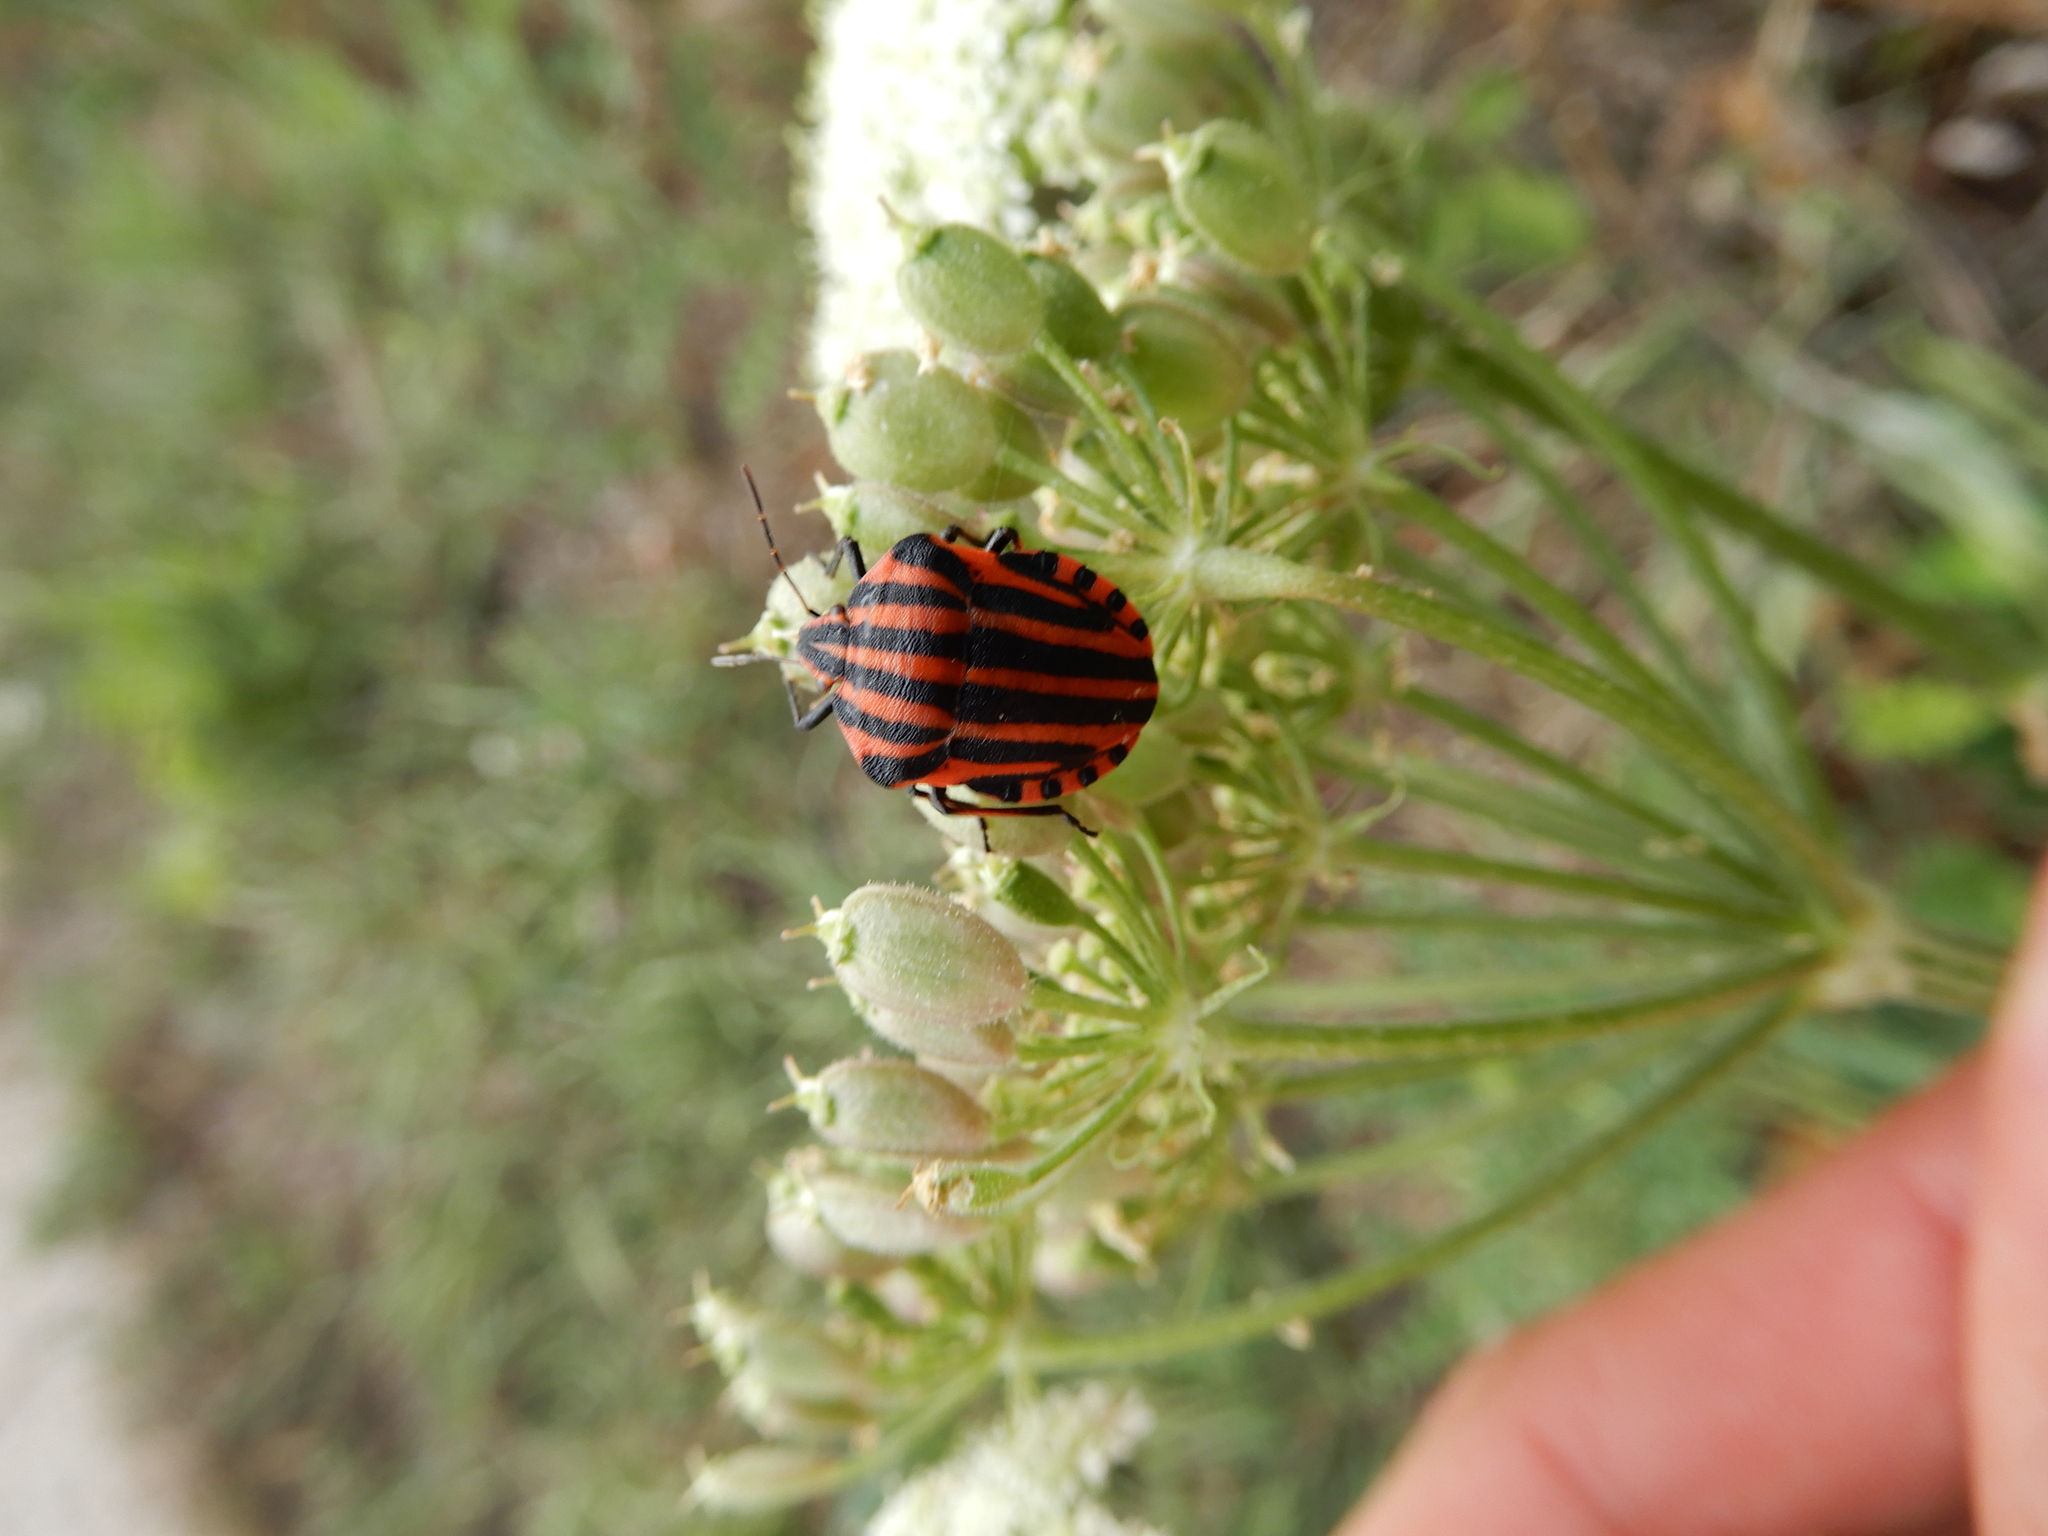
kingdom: Animalia
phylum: Arthropoda
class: Insecta
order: Hemiptera
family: Pentatomidae
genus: Graphosoma
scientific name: Graphosoma italicum
